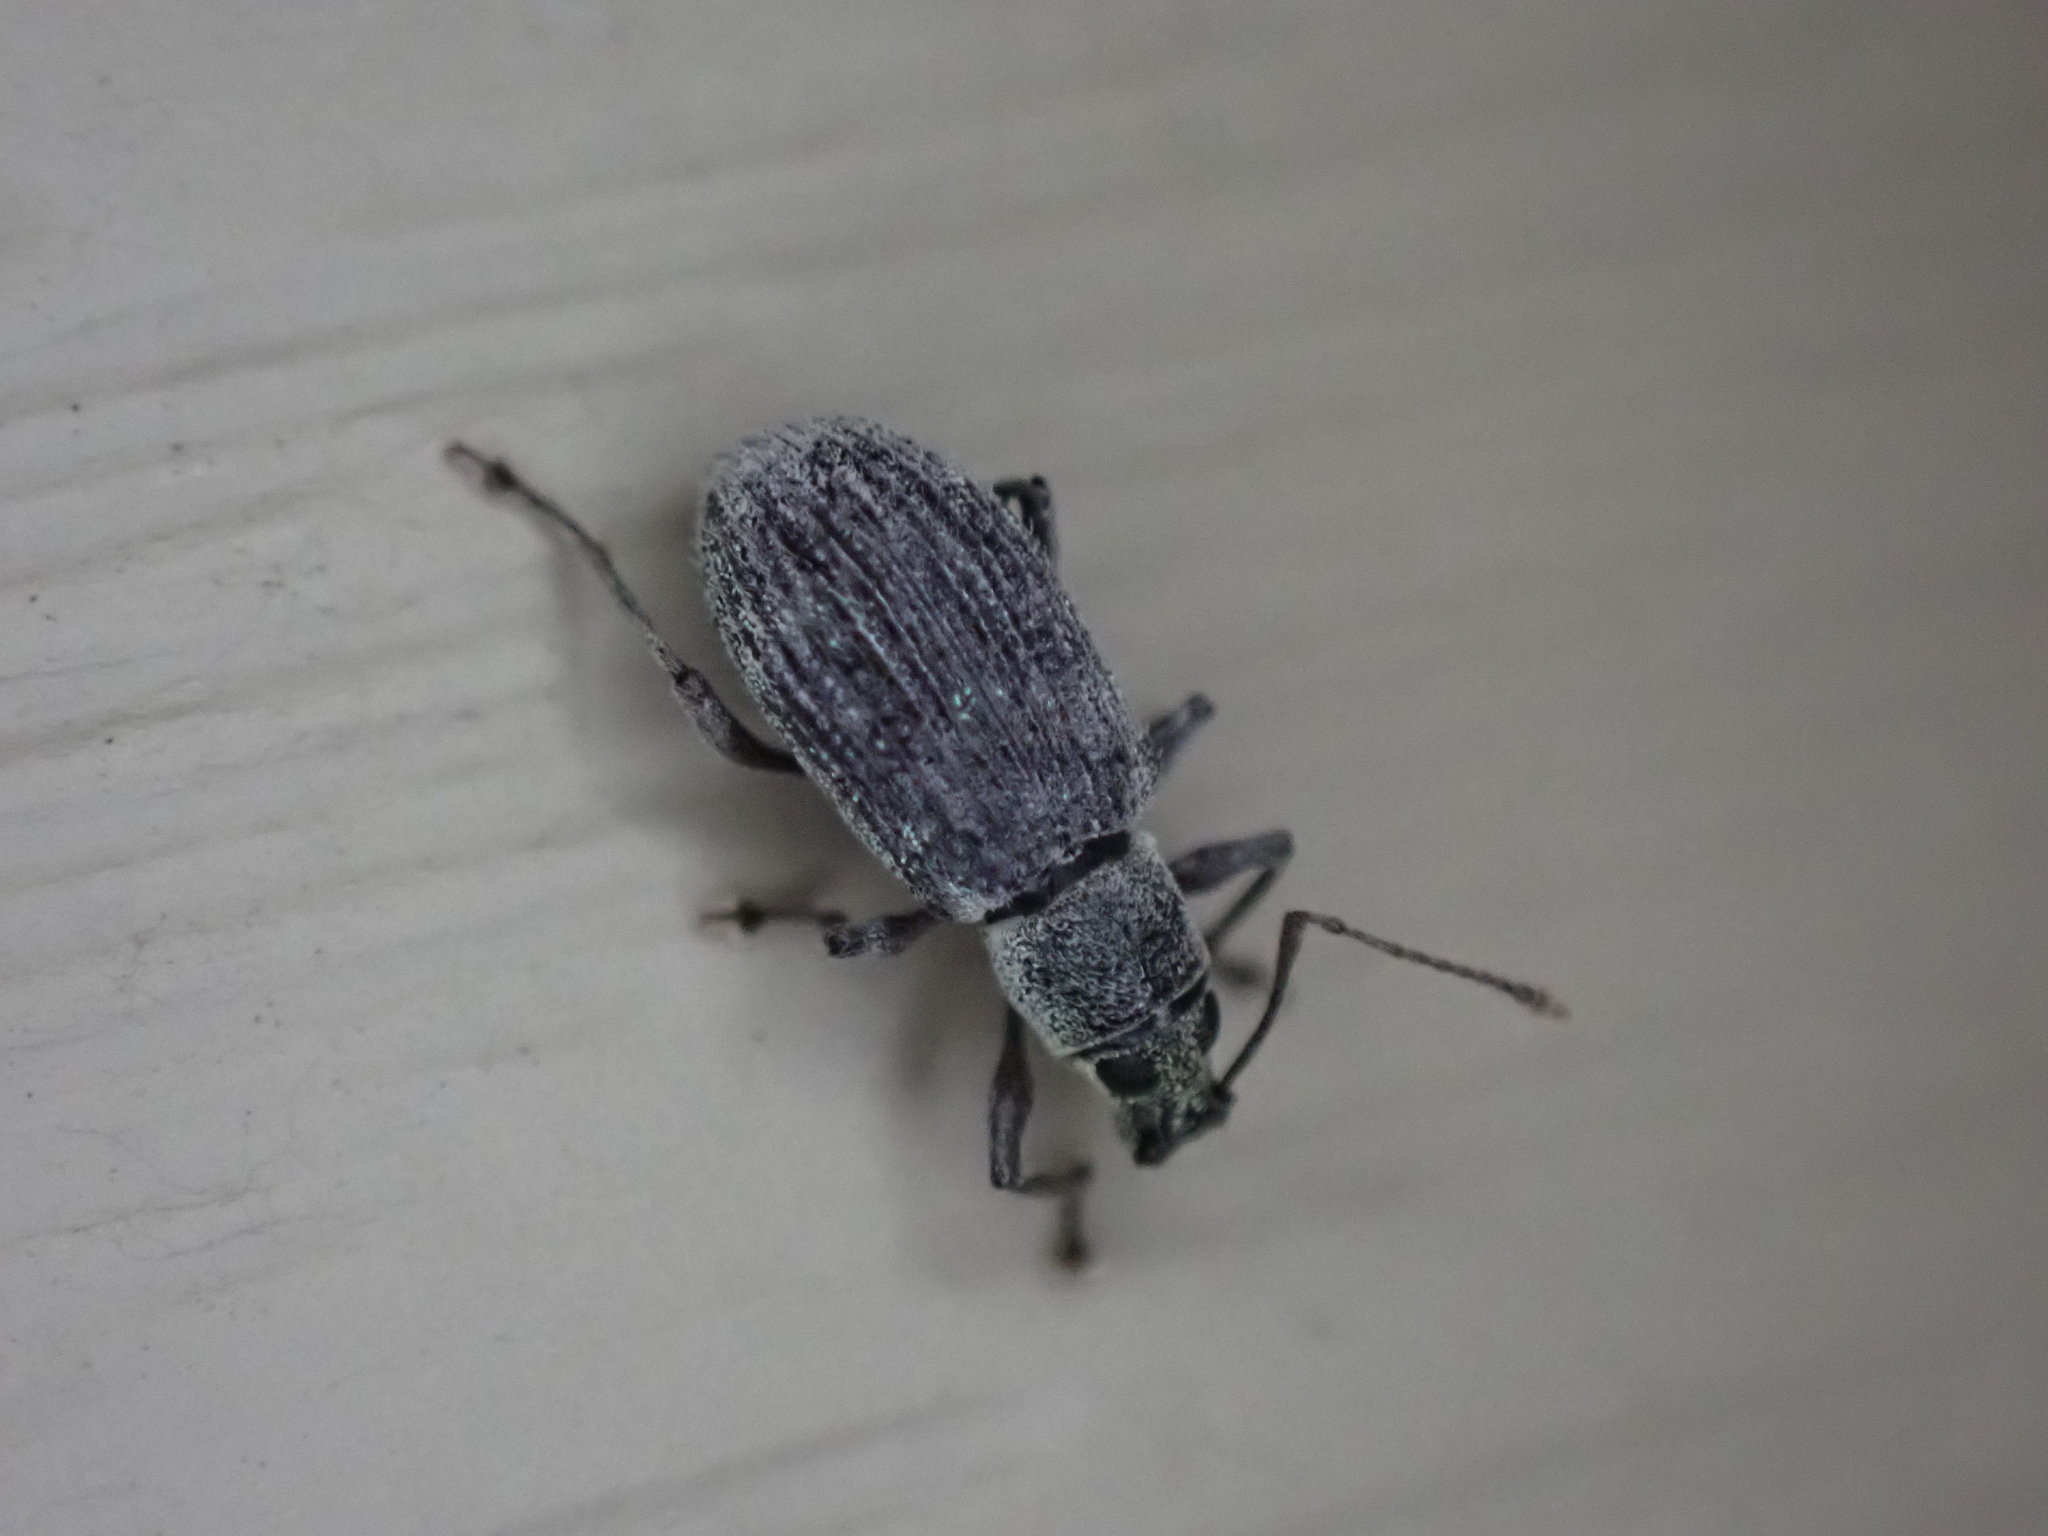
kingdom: Animalia
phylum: Arthropoda
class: Insecta
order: Coleoptera
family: Curculionidae
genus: Cyrtepistomus
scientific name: Cyrtepistomus castaneus
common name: Weevil
